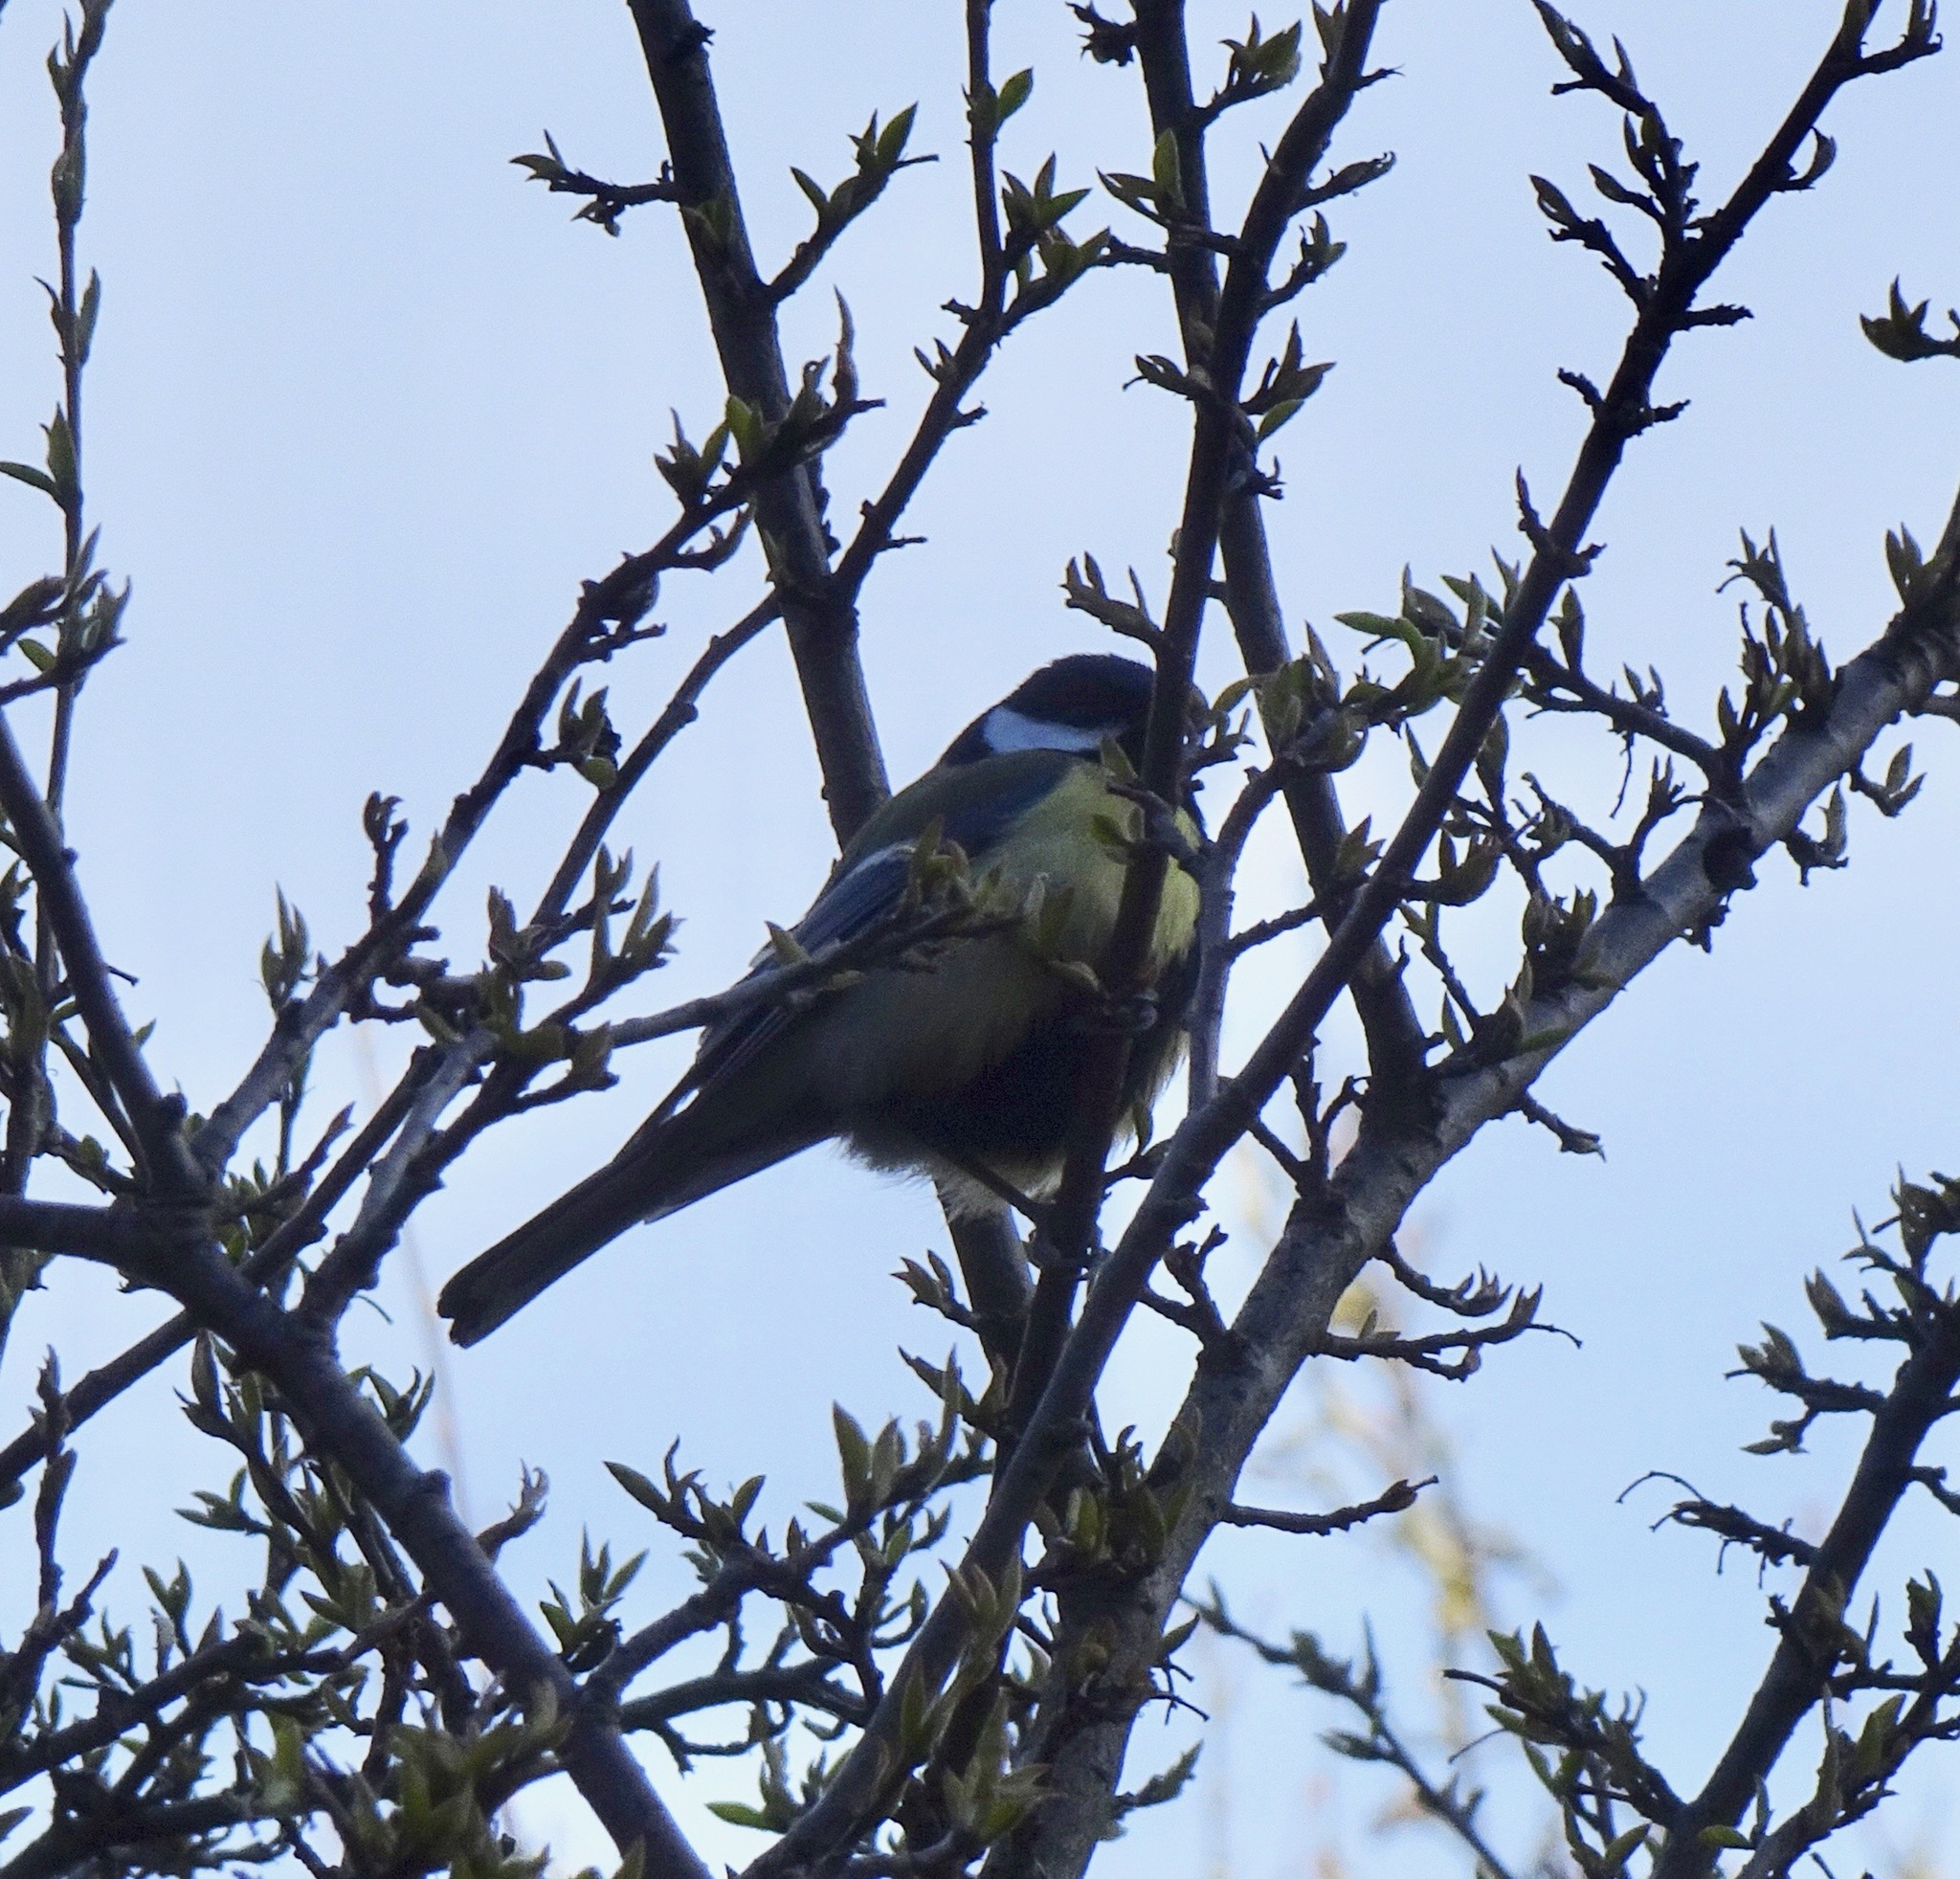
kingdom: Animalia
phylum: Chordata
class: Aves
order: Passeriformes
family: Paridae
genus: Parus
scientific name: Parus major
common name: Great tit
